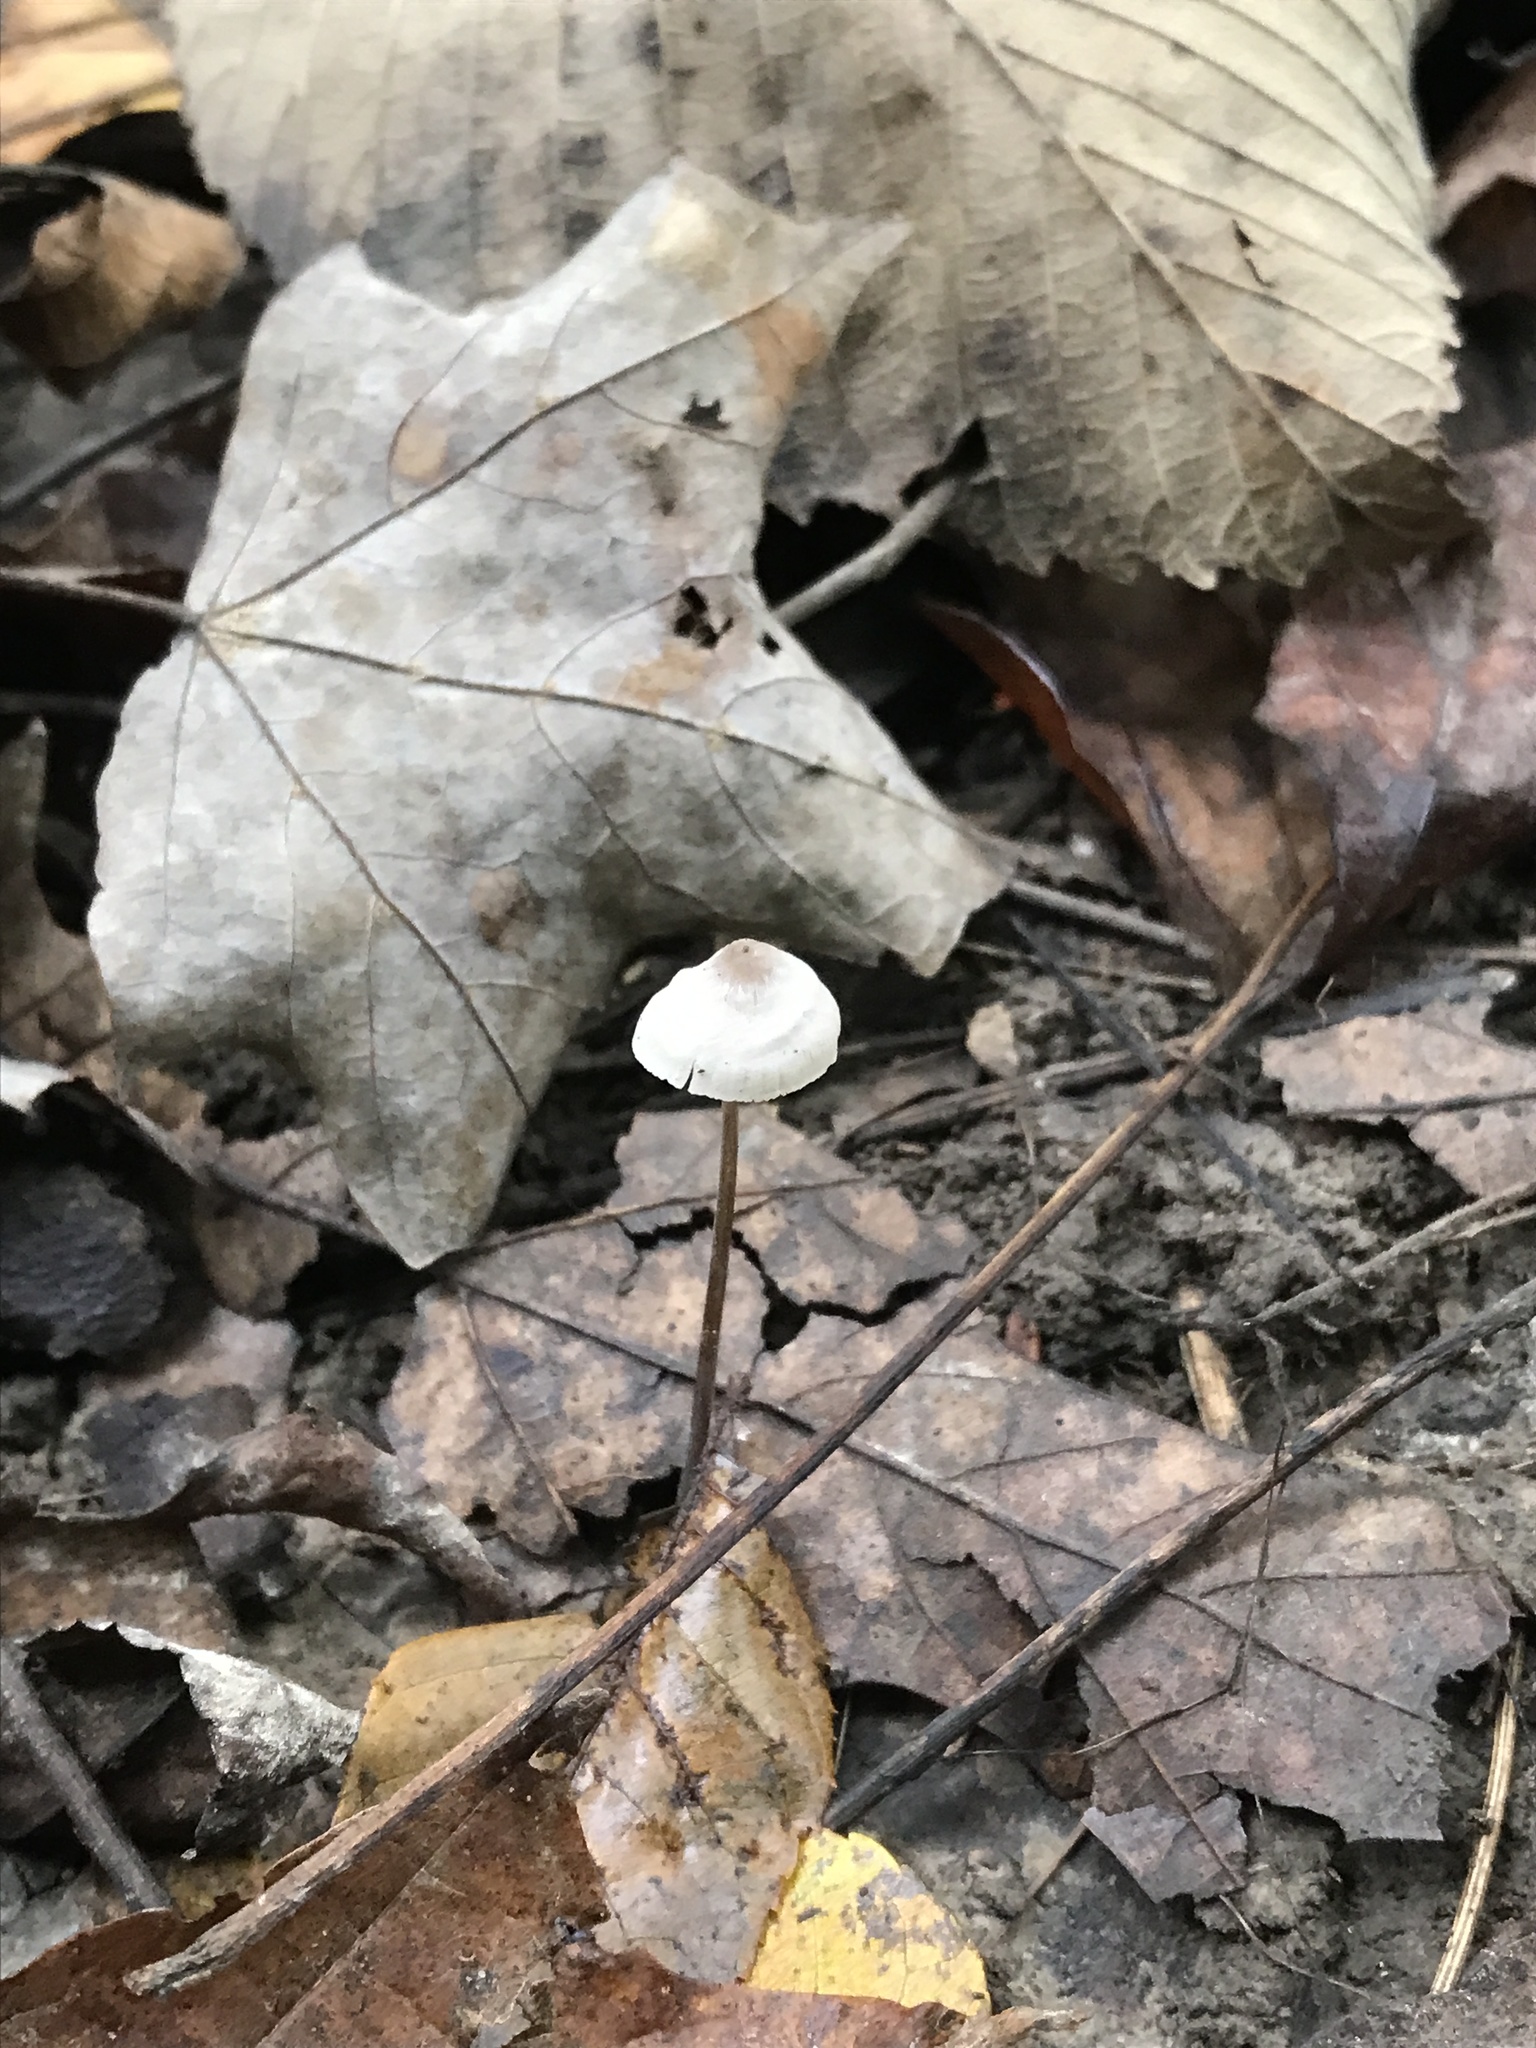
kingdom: Fungi
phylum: Basidiomycota
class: Agaricomycetes
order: Agaricales
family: Mycenaceae
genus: Mycena
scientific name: Mycena filopes
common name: Iodine bonnet
